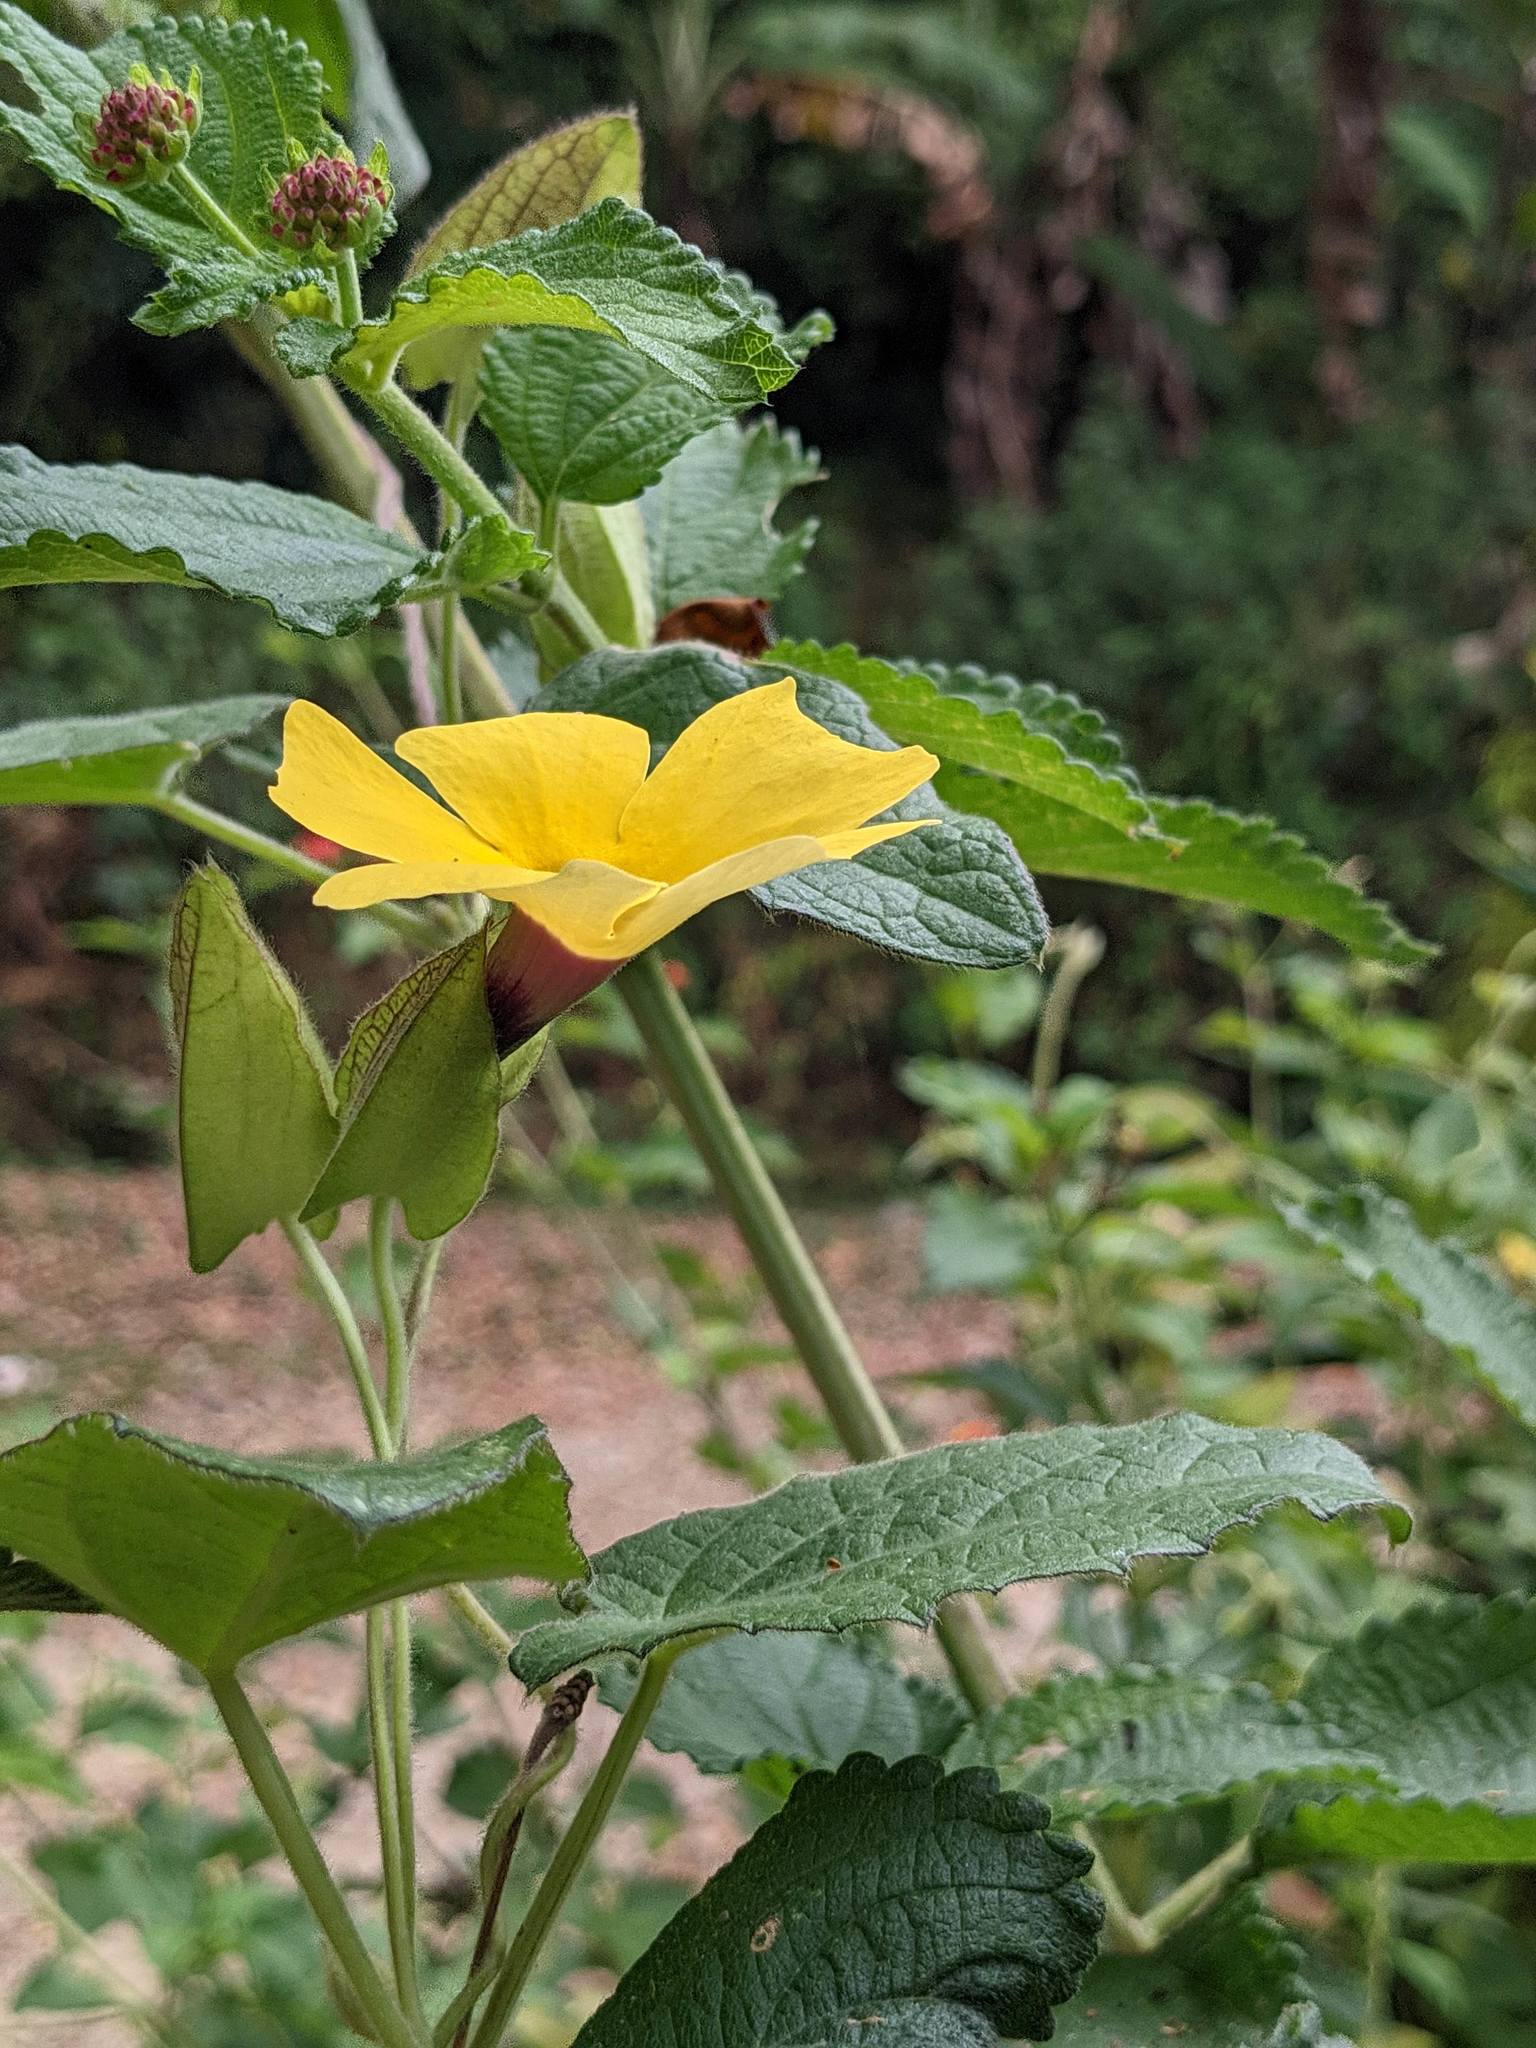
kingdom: Plantae
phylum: Tracheophyta
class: Magnoliopsida
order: Lamiales
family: Acanthaceae
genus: Thunbergia
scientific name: Thunbergia alata
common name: Blackeyed susan vine
